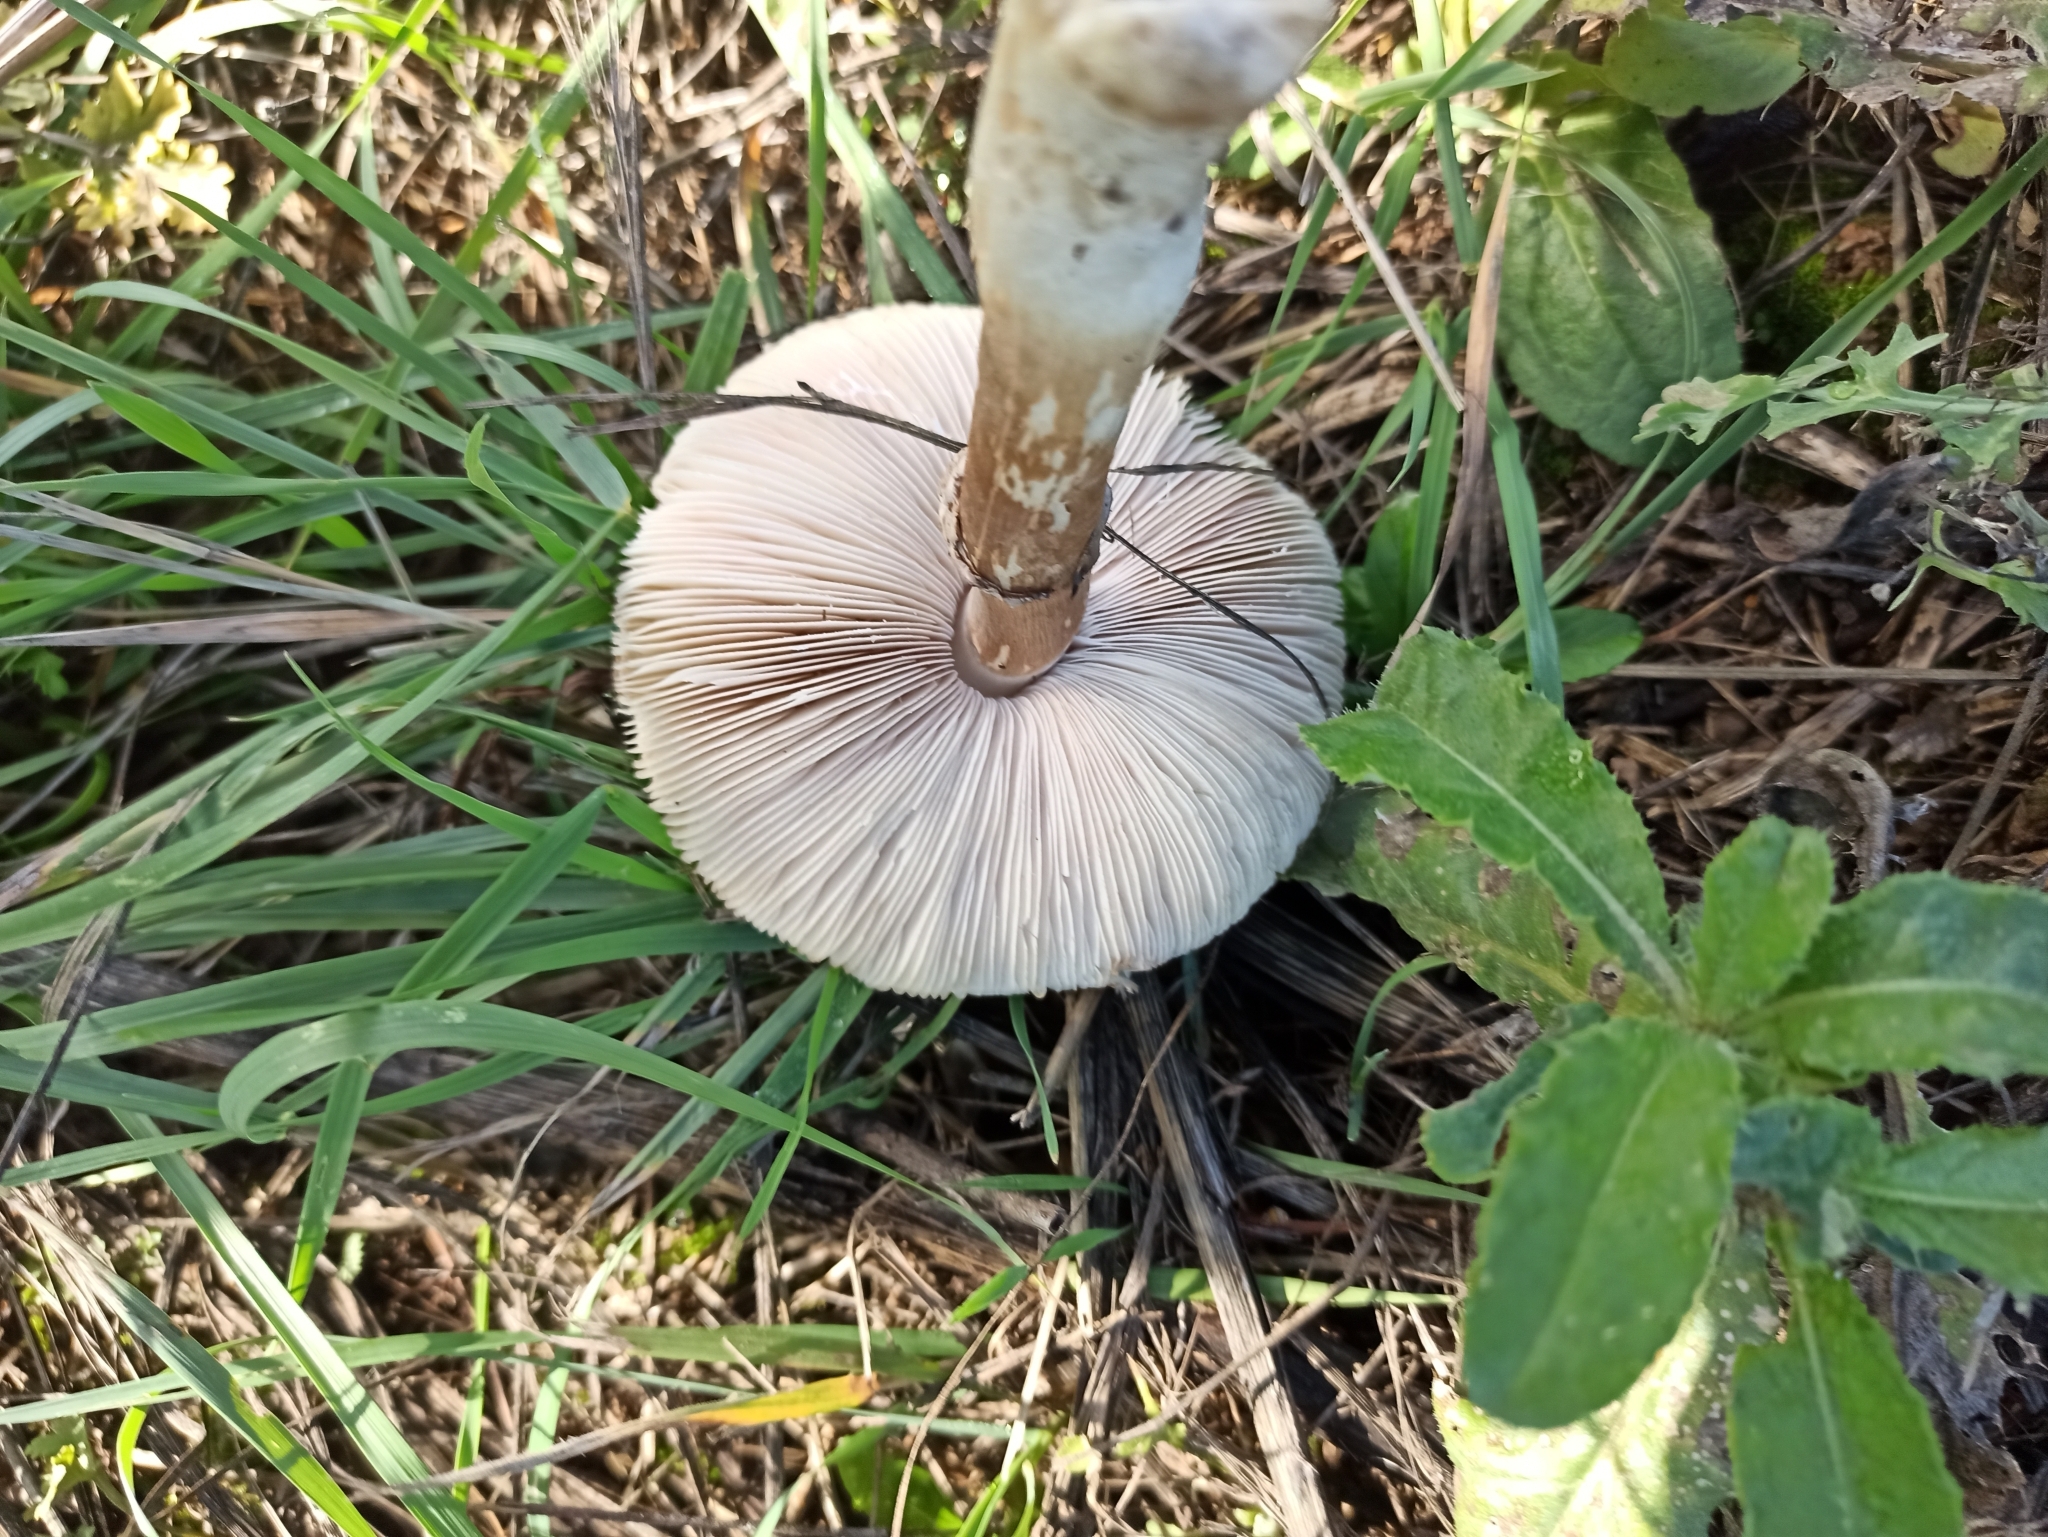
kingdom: Fungi
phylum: Basidiomycota
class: Agaricomycetes
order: Agaricales
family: Agaricaceae
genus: Leucoagaricus
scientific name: Leucoagaricus leucothites
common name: White dapperling
